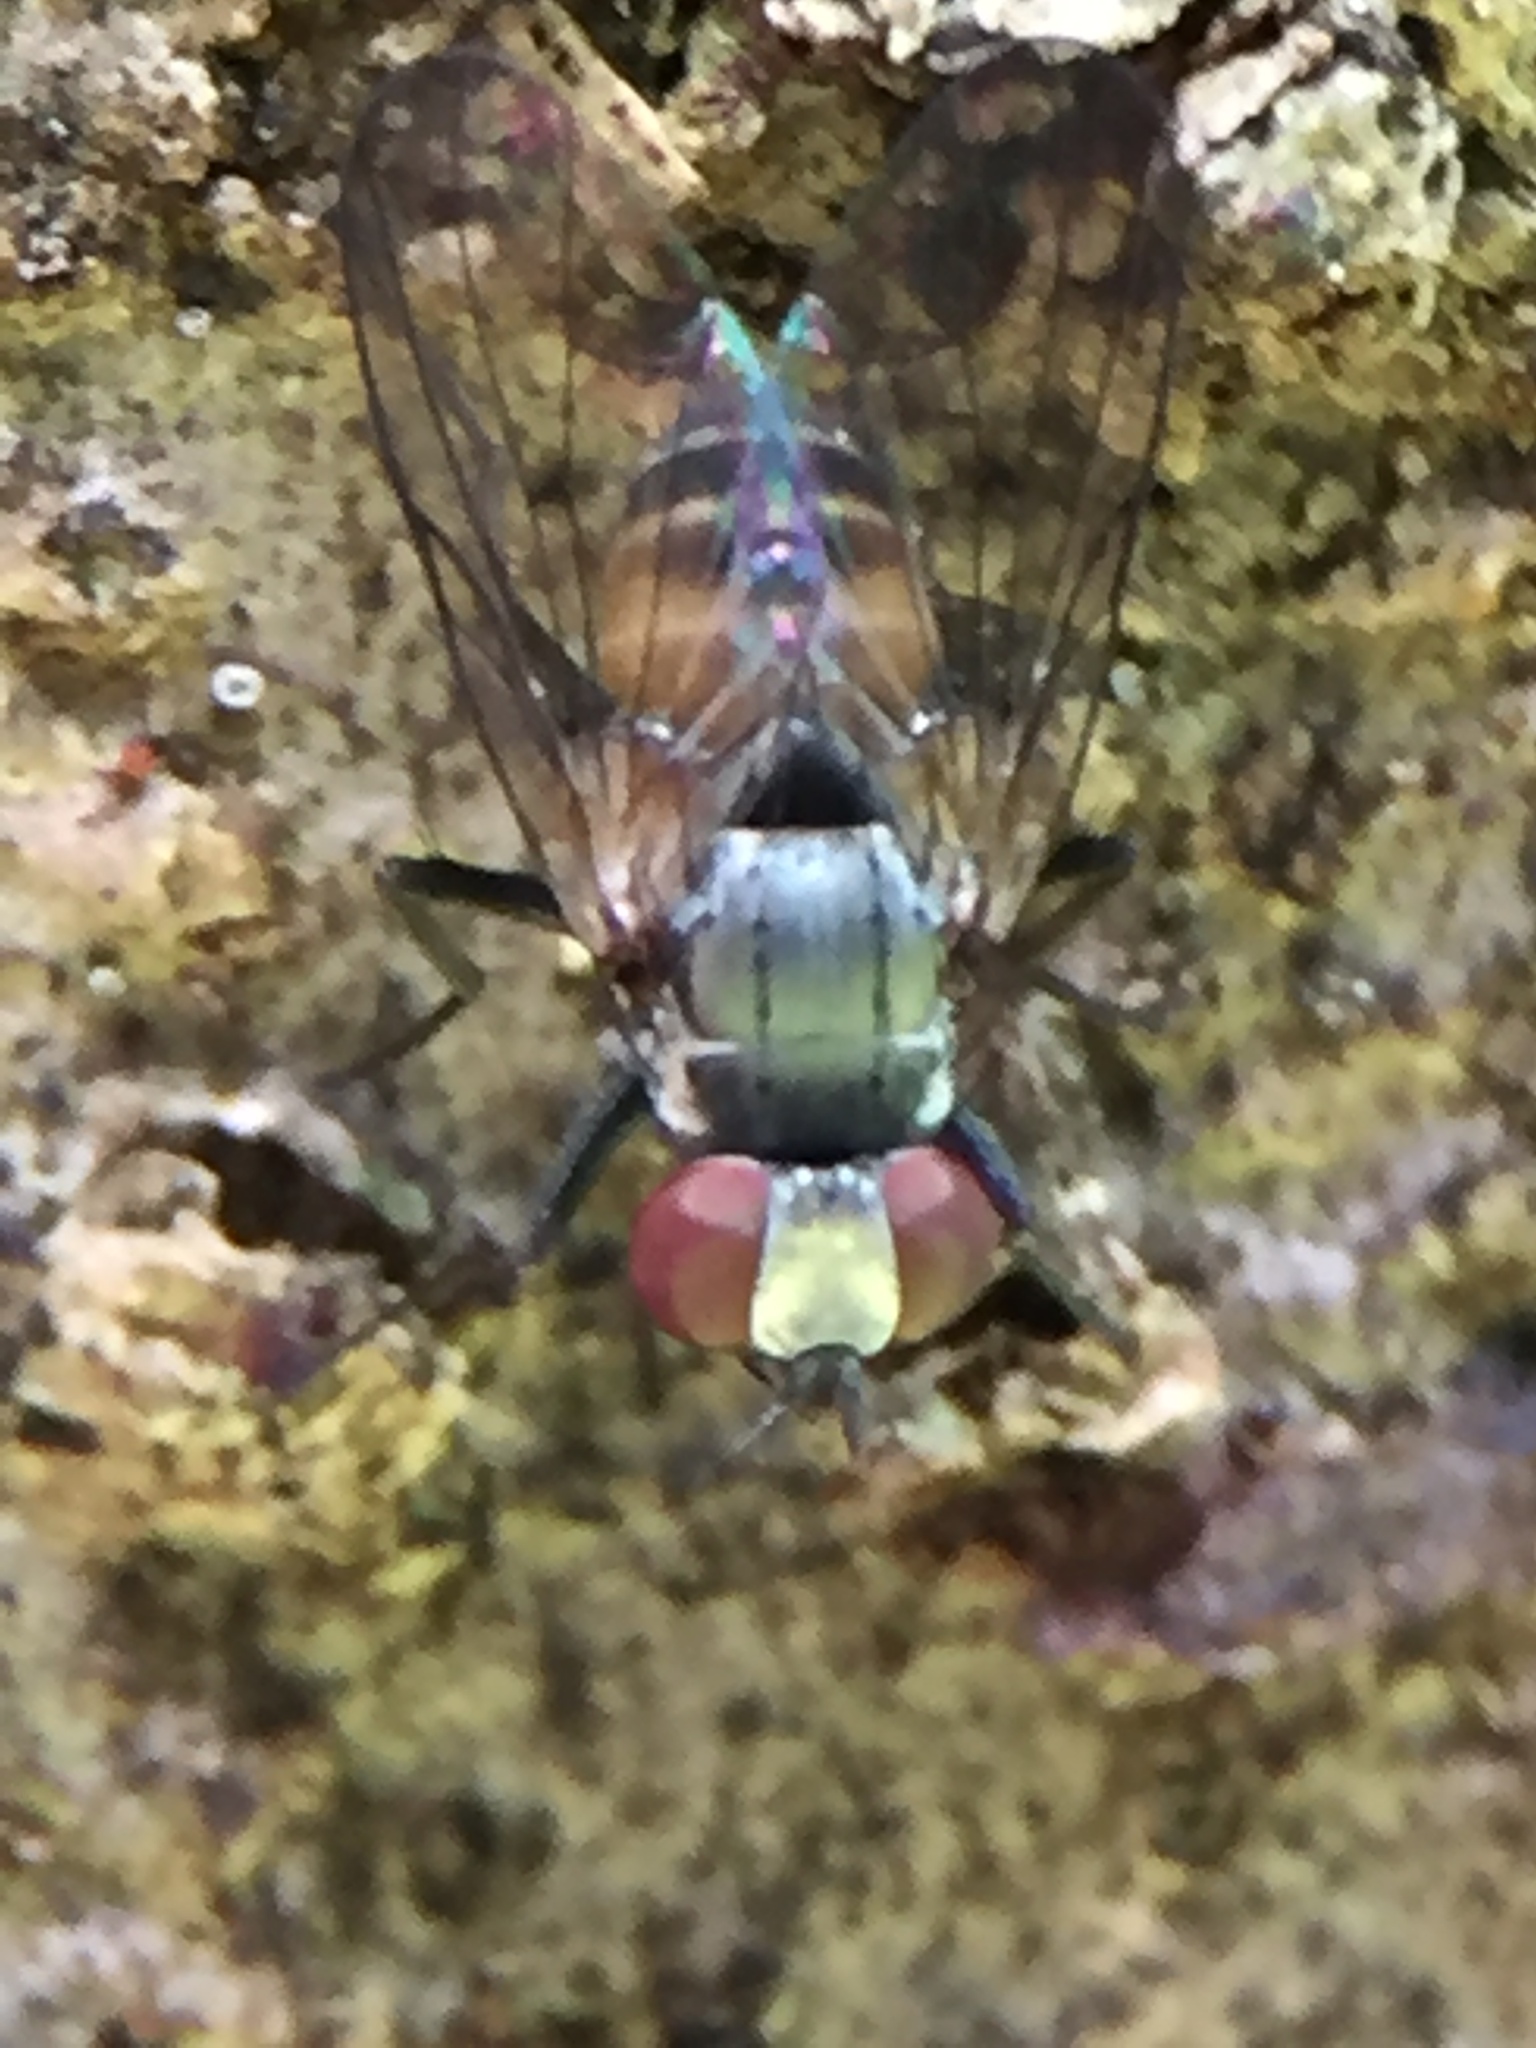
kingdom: Animalia
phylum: Arthropoda
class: Insecta
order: Diptera
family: Muscidae
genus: Spilogona
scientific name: Spilogona flaviventris
